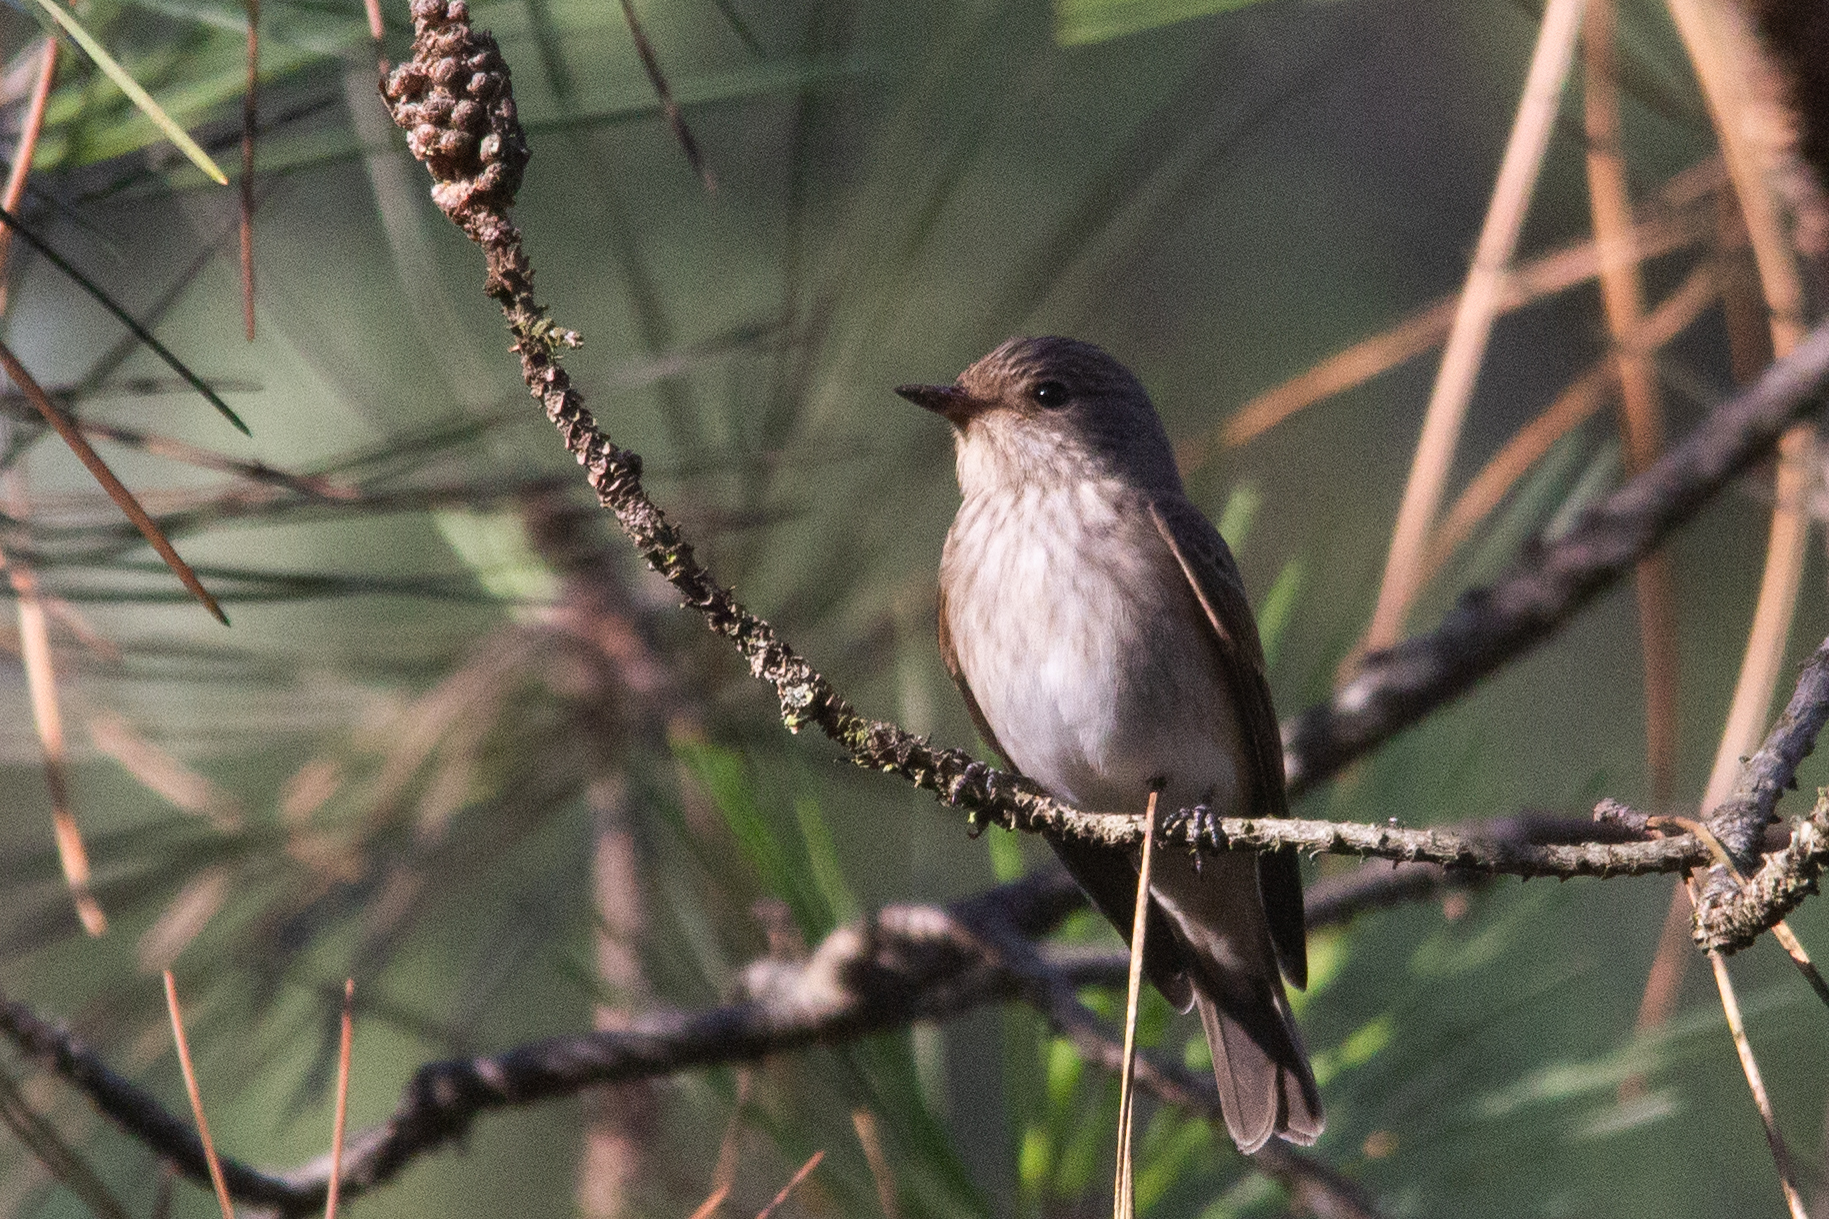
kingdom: Animalia
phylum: Chordata
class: Aves
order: Passeriformes
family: Muscicapidae
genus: Muscicapa
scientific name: Muscicapa striata
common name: Spotted flycatcher
